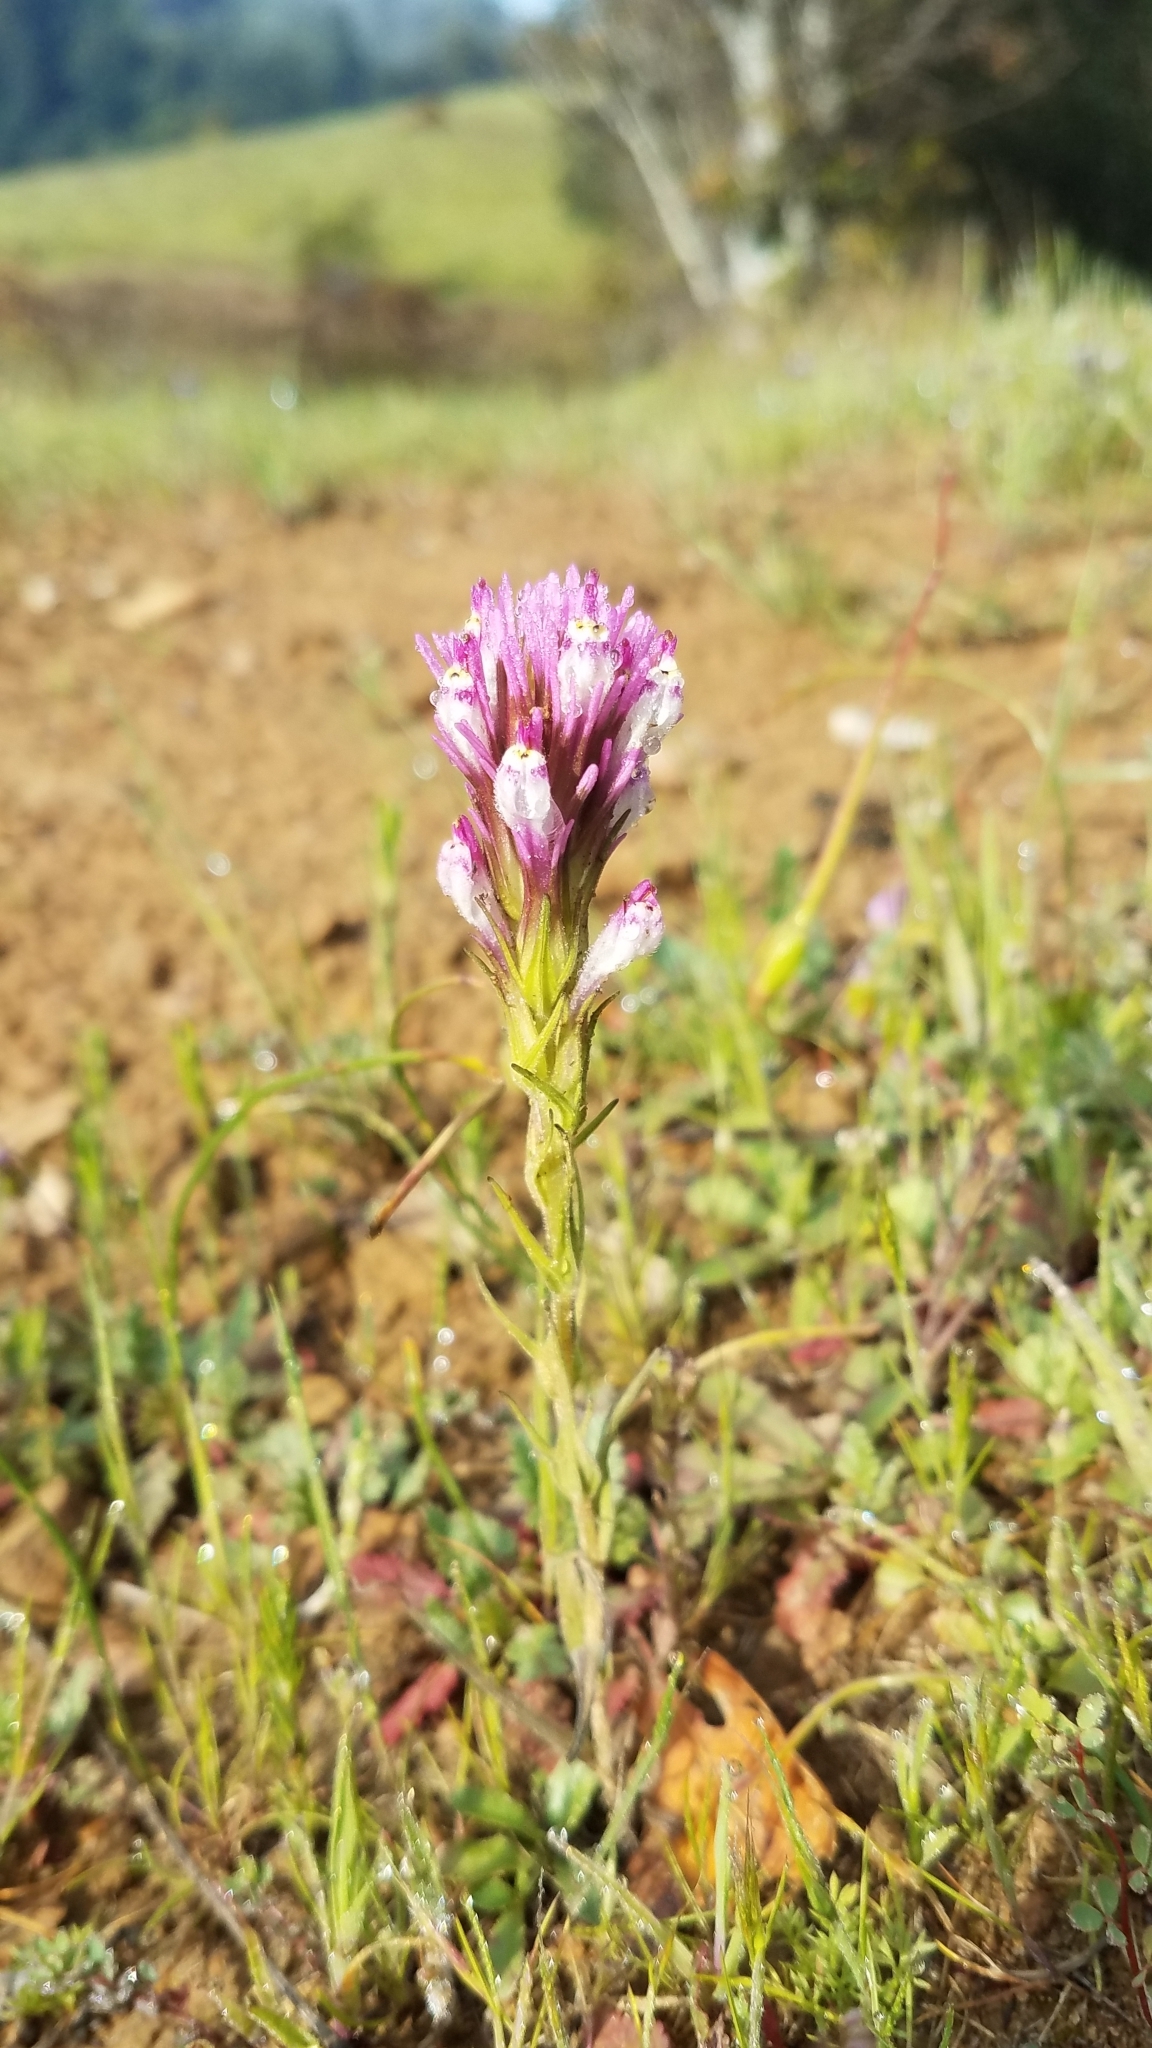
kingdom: Plantae
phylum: Tracheophyta
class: Magnoliopsida
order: Lamiales
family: Orobanchaceae
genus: Castilleja
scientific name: Castilleja densiflora
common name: Dense-flower indian paintbrush
